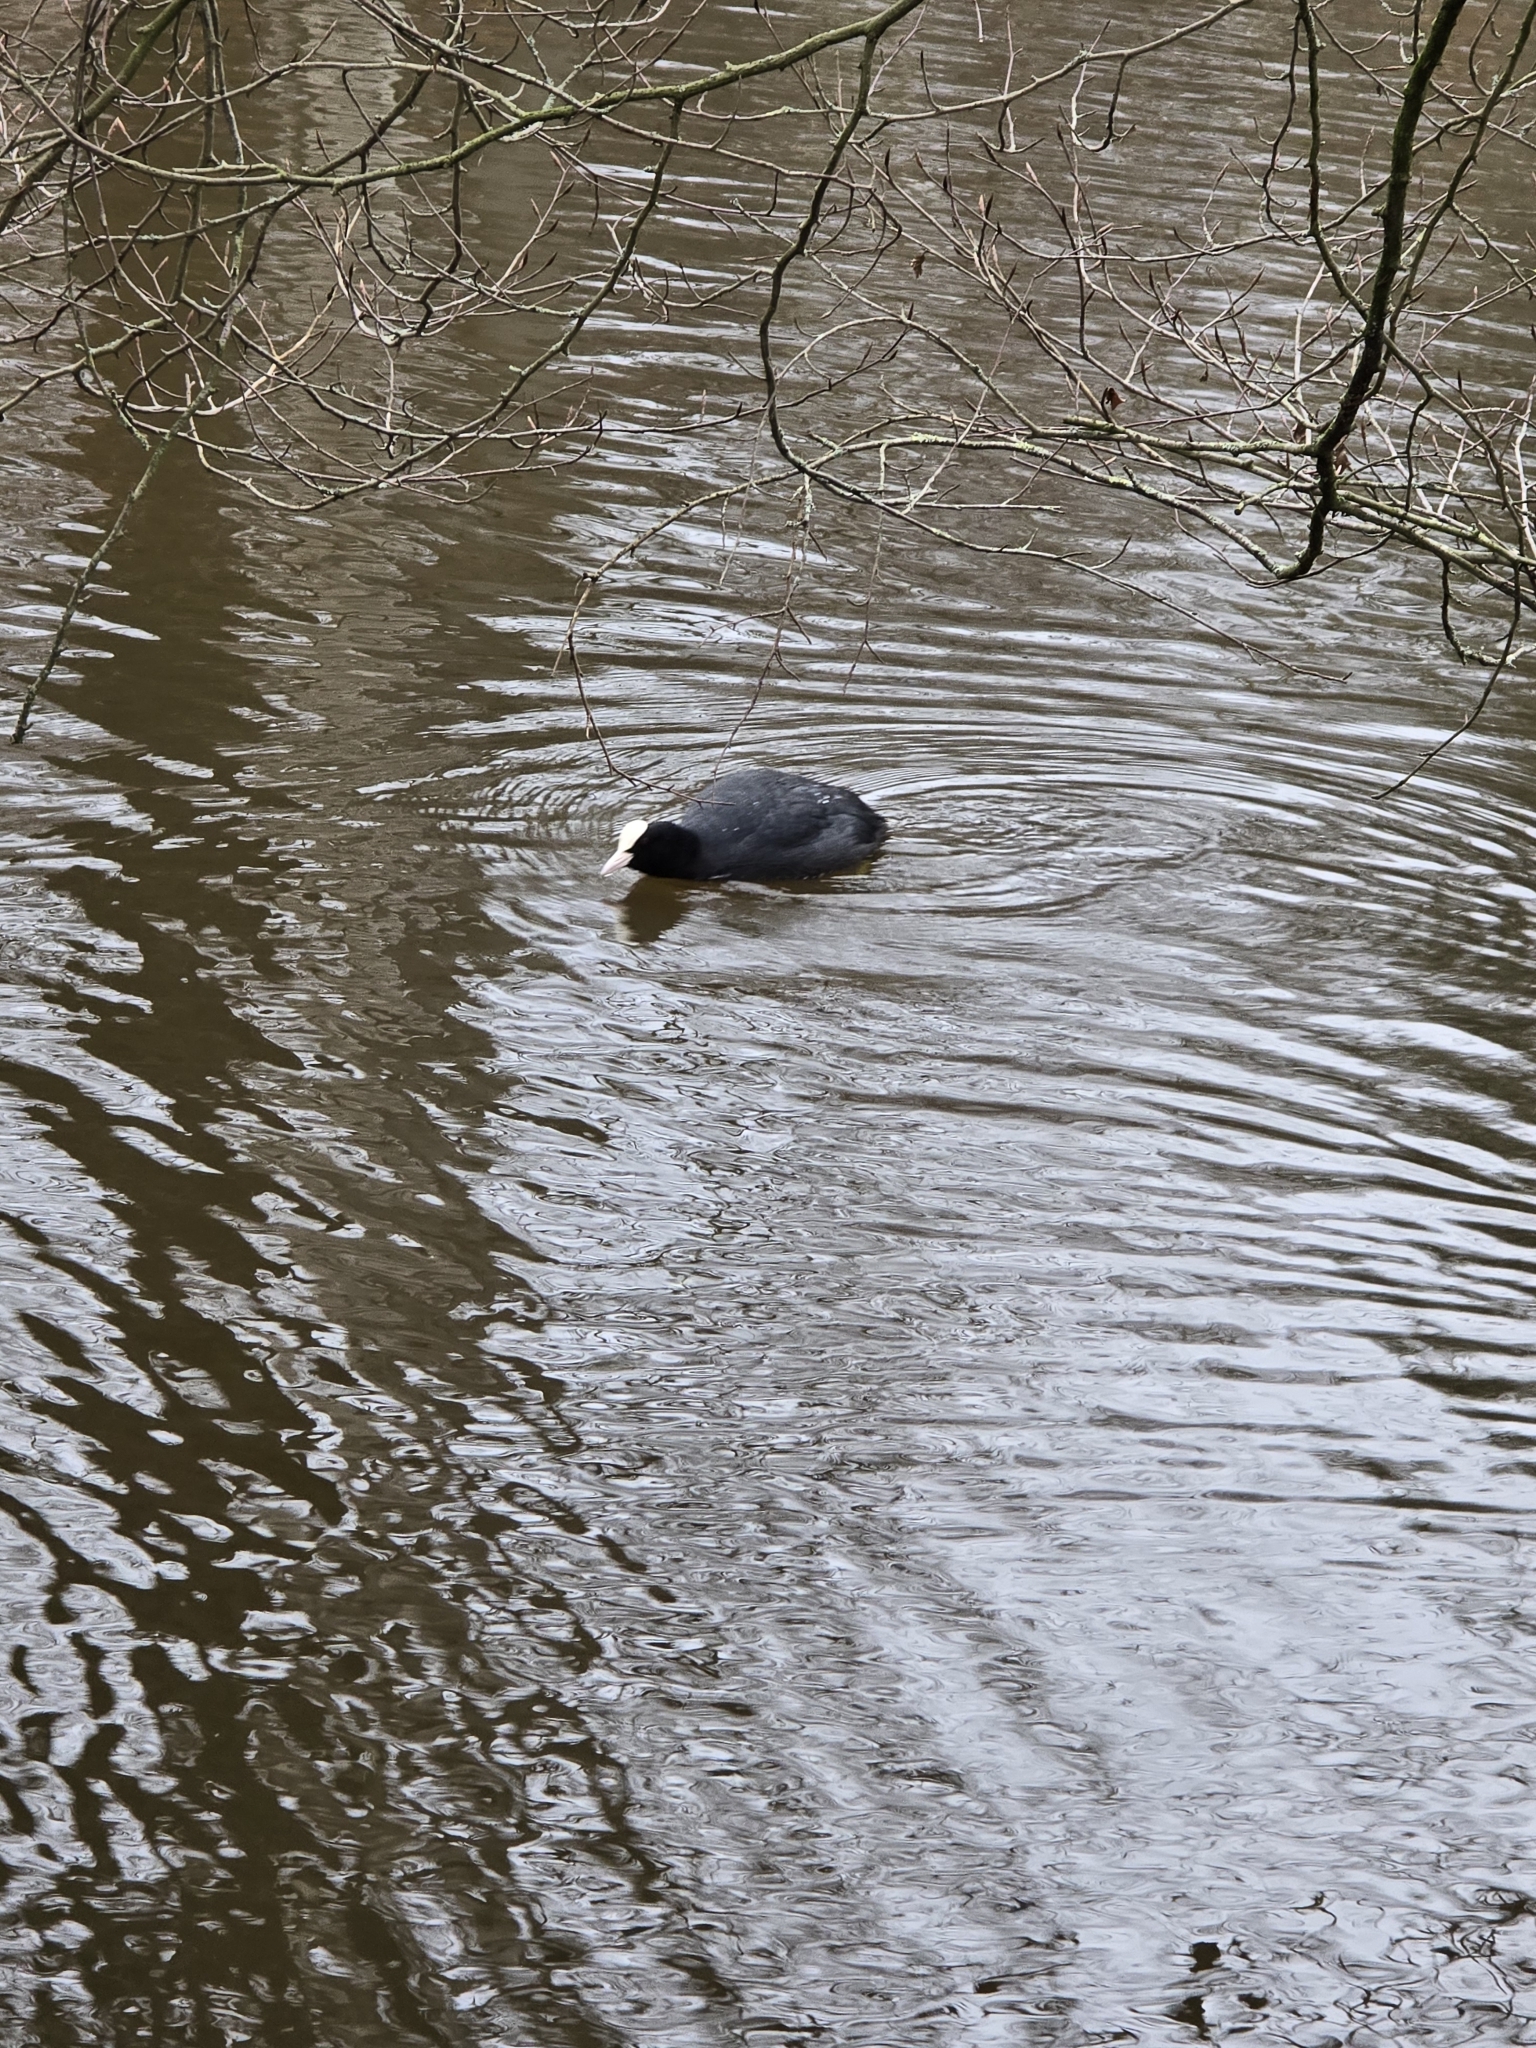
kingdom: Animalia
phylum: Chordata
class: Aves
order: Gruiformes
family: Rallidae
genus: Fulica
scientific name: Fulica atra
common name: Eurasian coot
